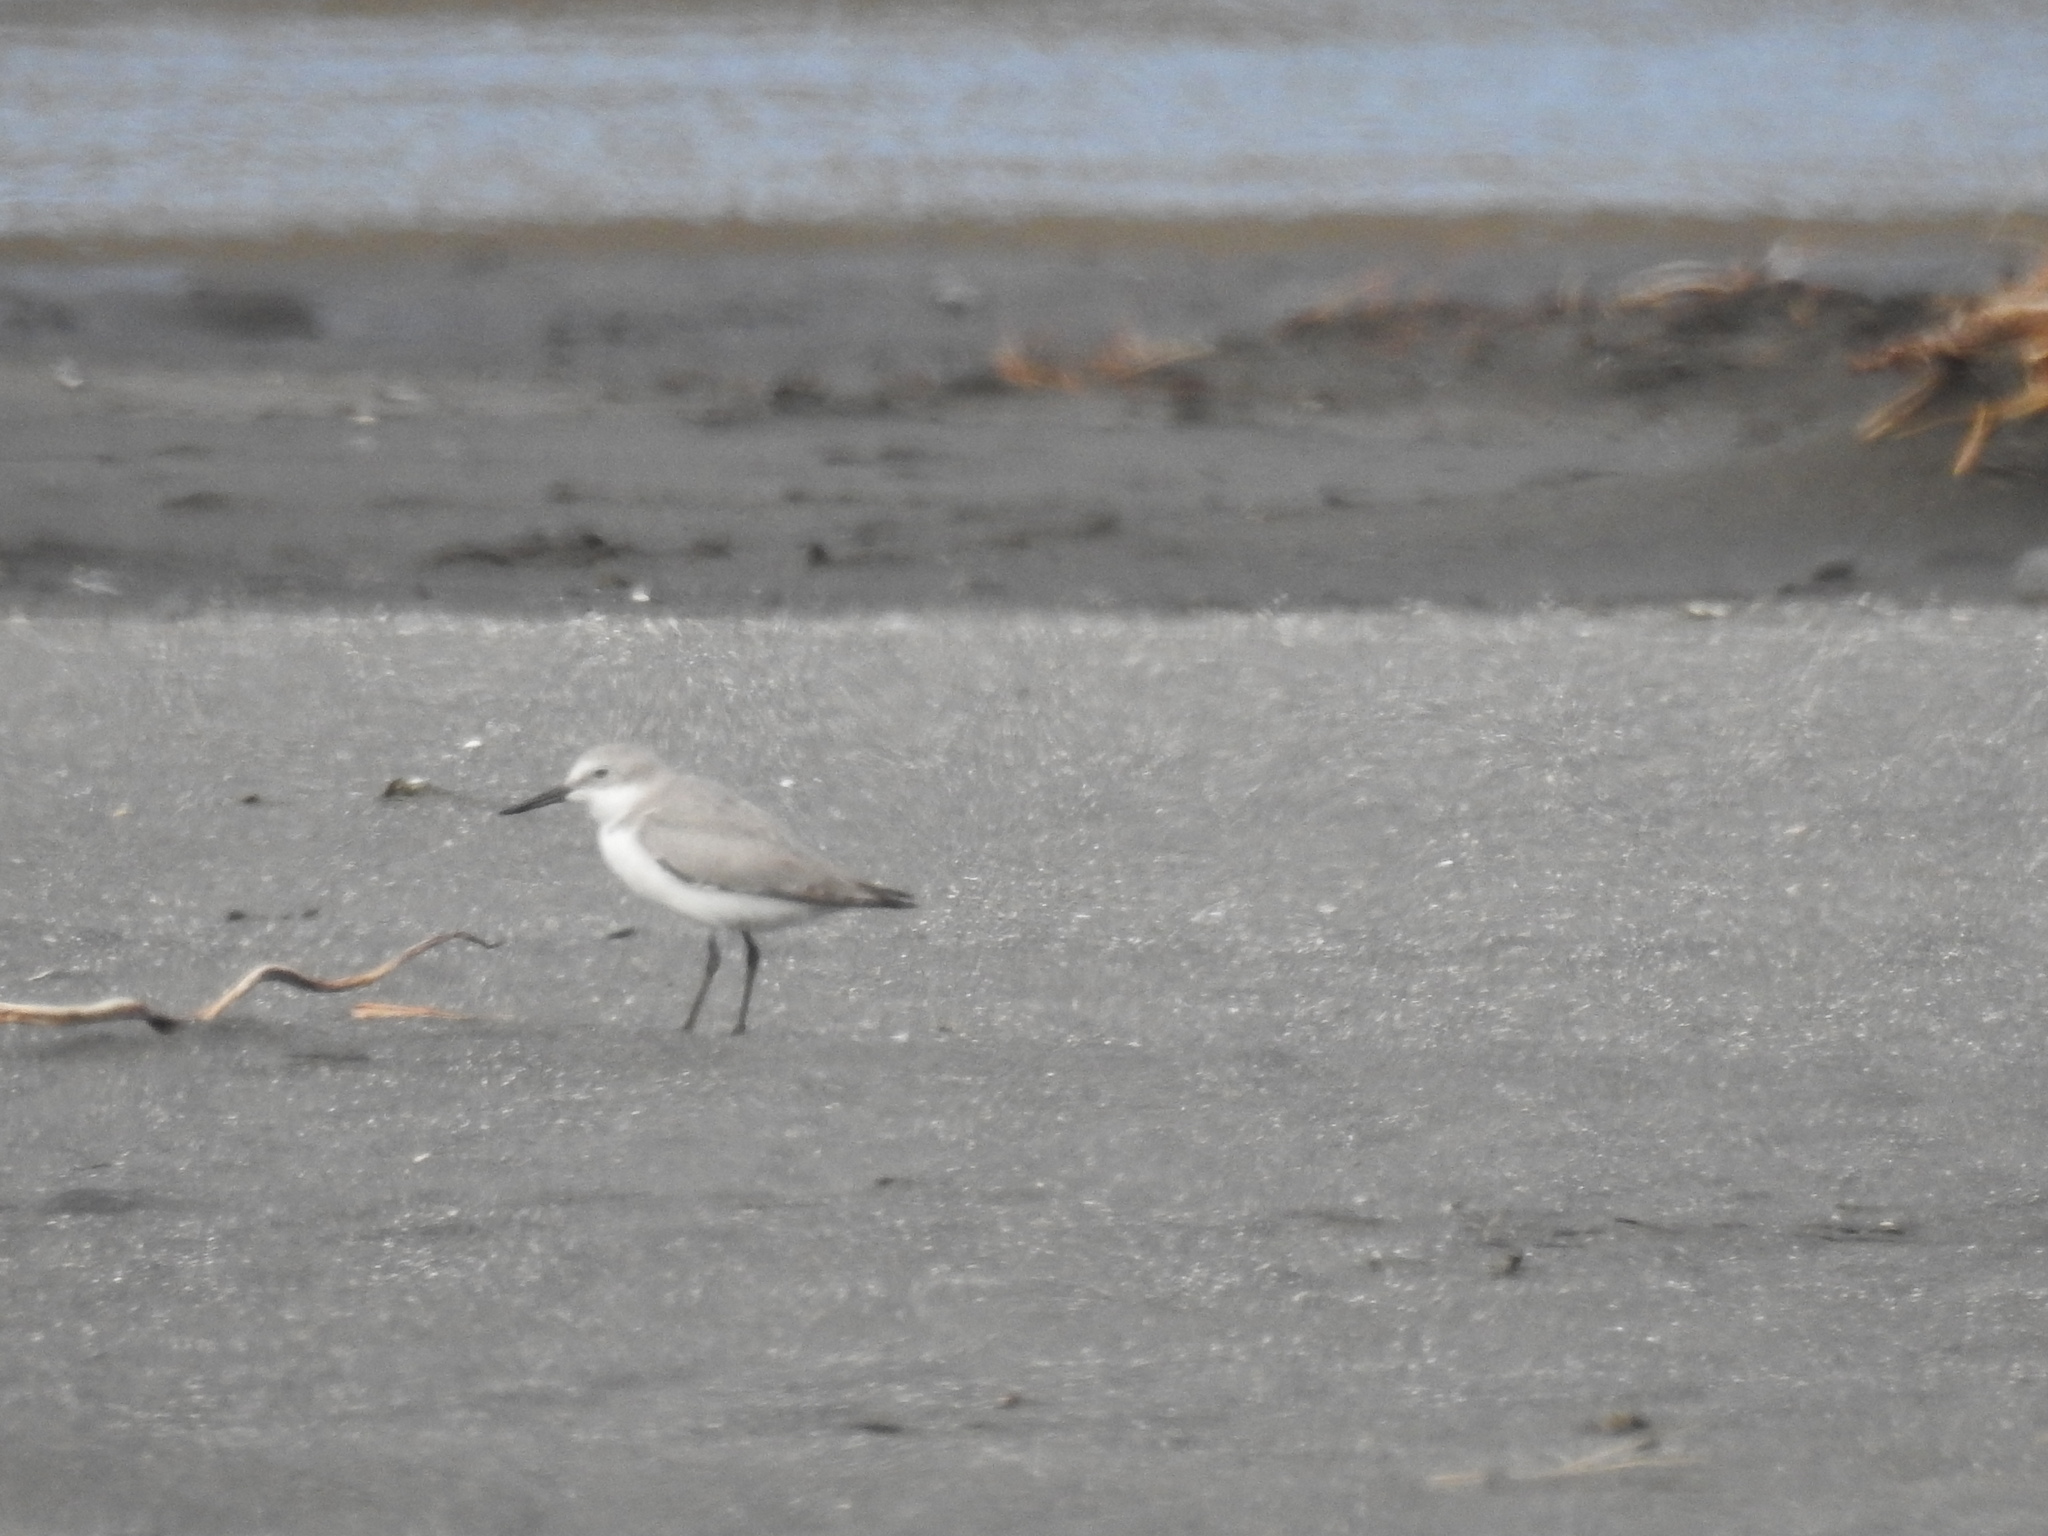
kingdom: Animalia
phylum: Chordata
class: Aves
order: Charadriiformes
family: Charadriidae
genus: Anarhynchus
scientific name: Anarhynchus frontalis
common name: Wrybill
